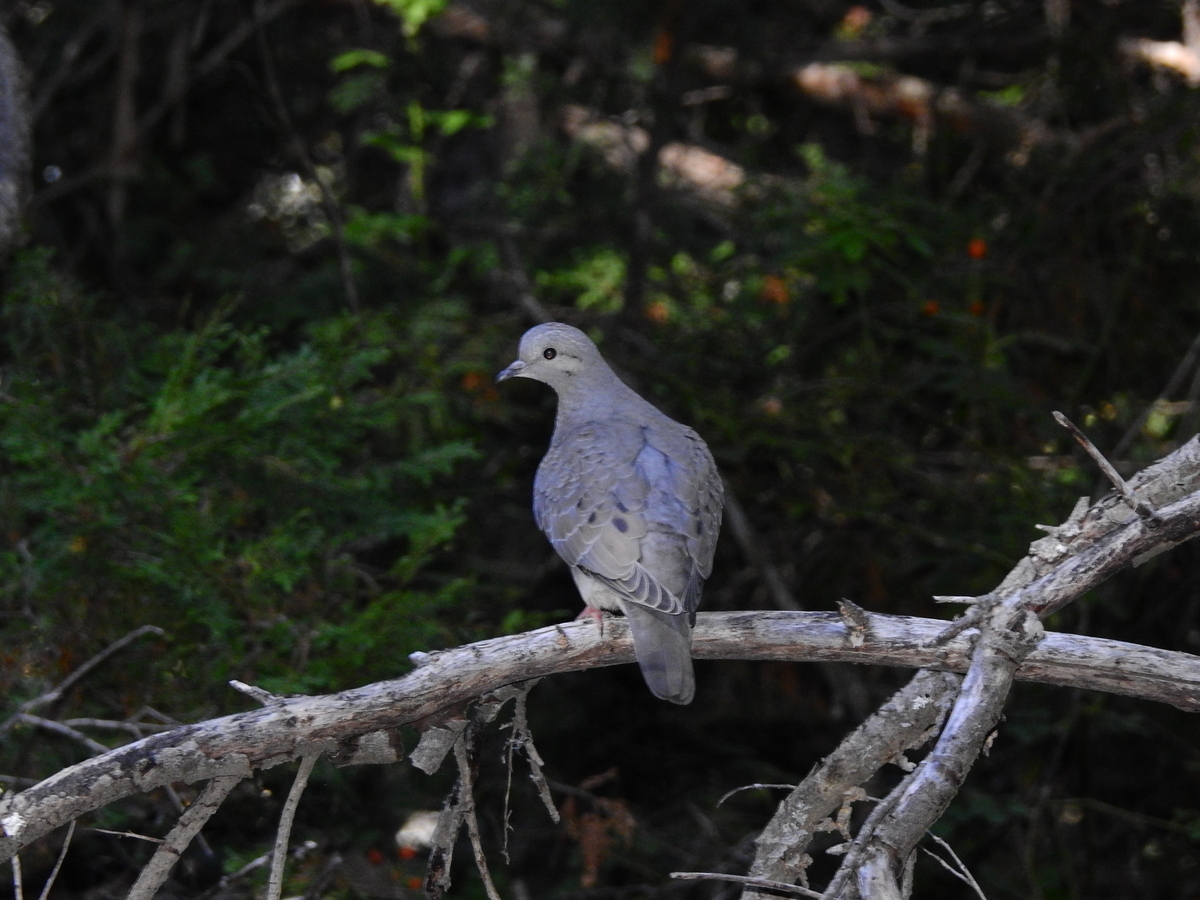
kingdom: Animalia
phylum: Chordata
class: Aves
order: Columbiformes
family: Columbidae
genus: Zenaida
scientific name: Zenaida auriculata
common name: Eared dove
